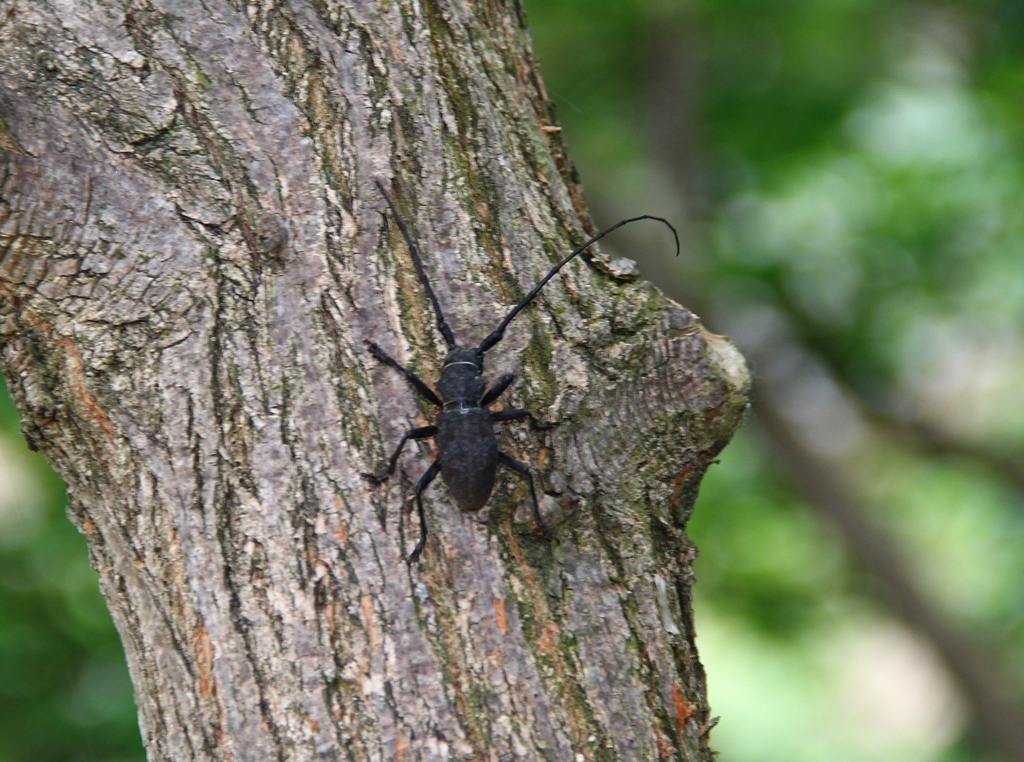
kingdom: Animalia
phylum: Arthropoda
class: Insecta
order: Coleoptera
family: Cerambycidae
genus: Morimus
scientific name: Morimus asper
